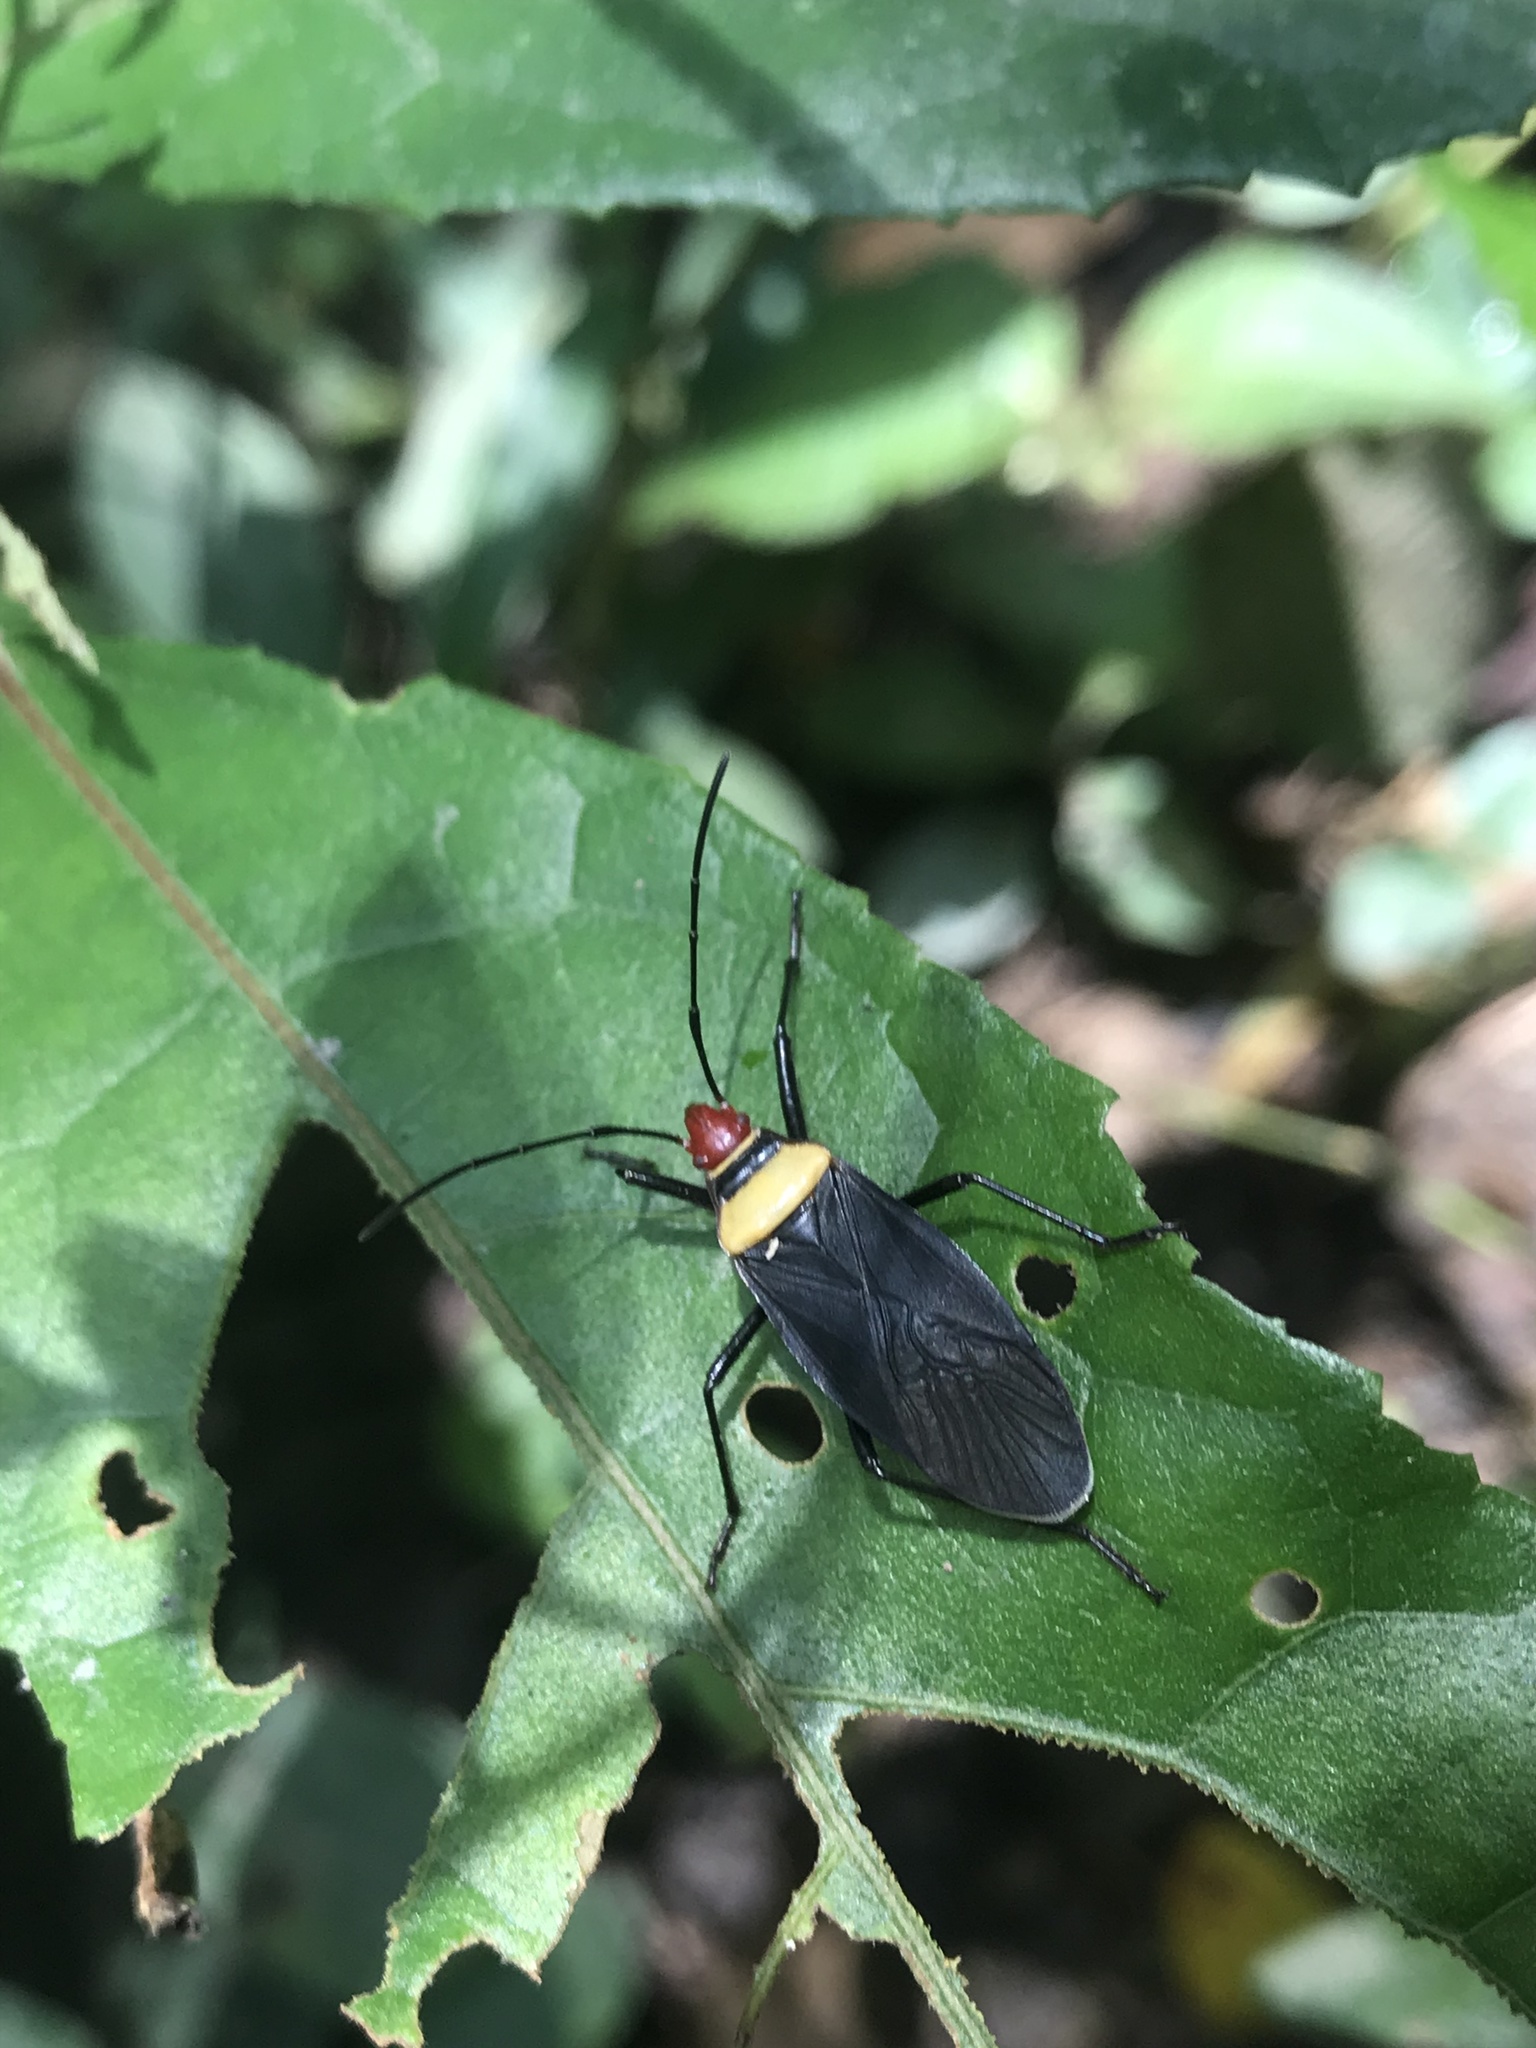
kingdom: Animalia
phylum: Arthropoda
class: Insecta
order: Hemiptera
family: Pyrrhocoridae
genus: Dysdercus
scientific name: Dysdercus
